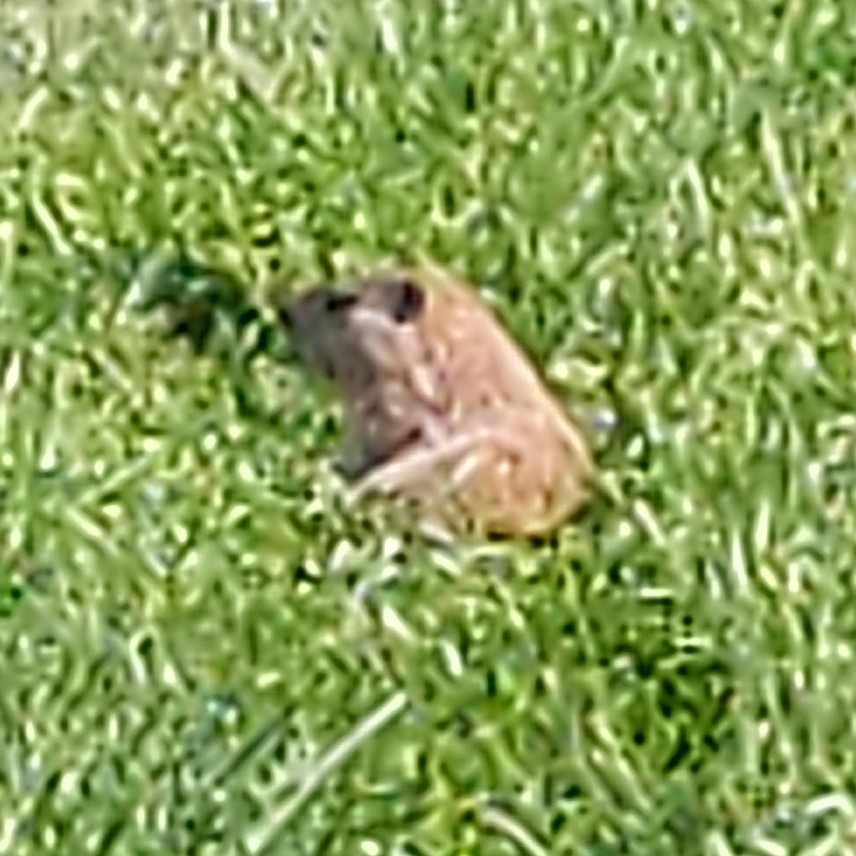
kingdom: Animalia
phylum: Chordata
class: Mammalia
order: Rodentia
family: Sciuridae
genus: Marmota
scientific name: Marmota monax
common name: Groundhog
